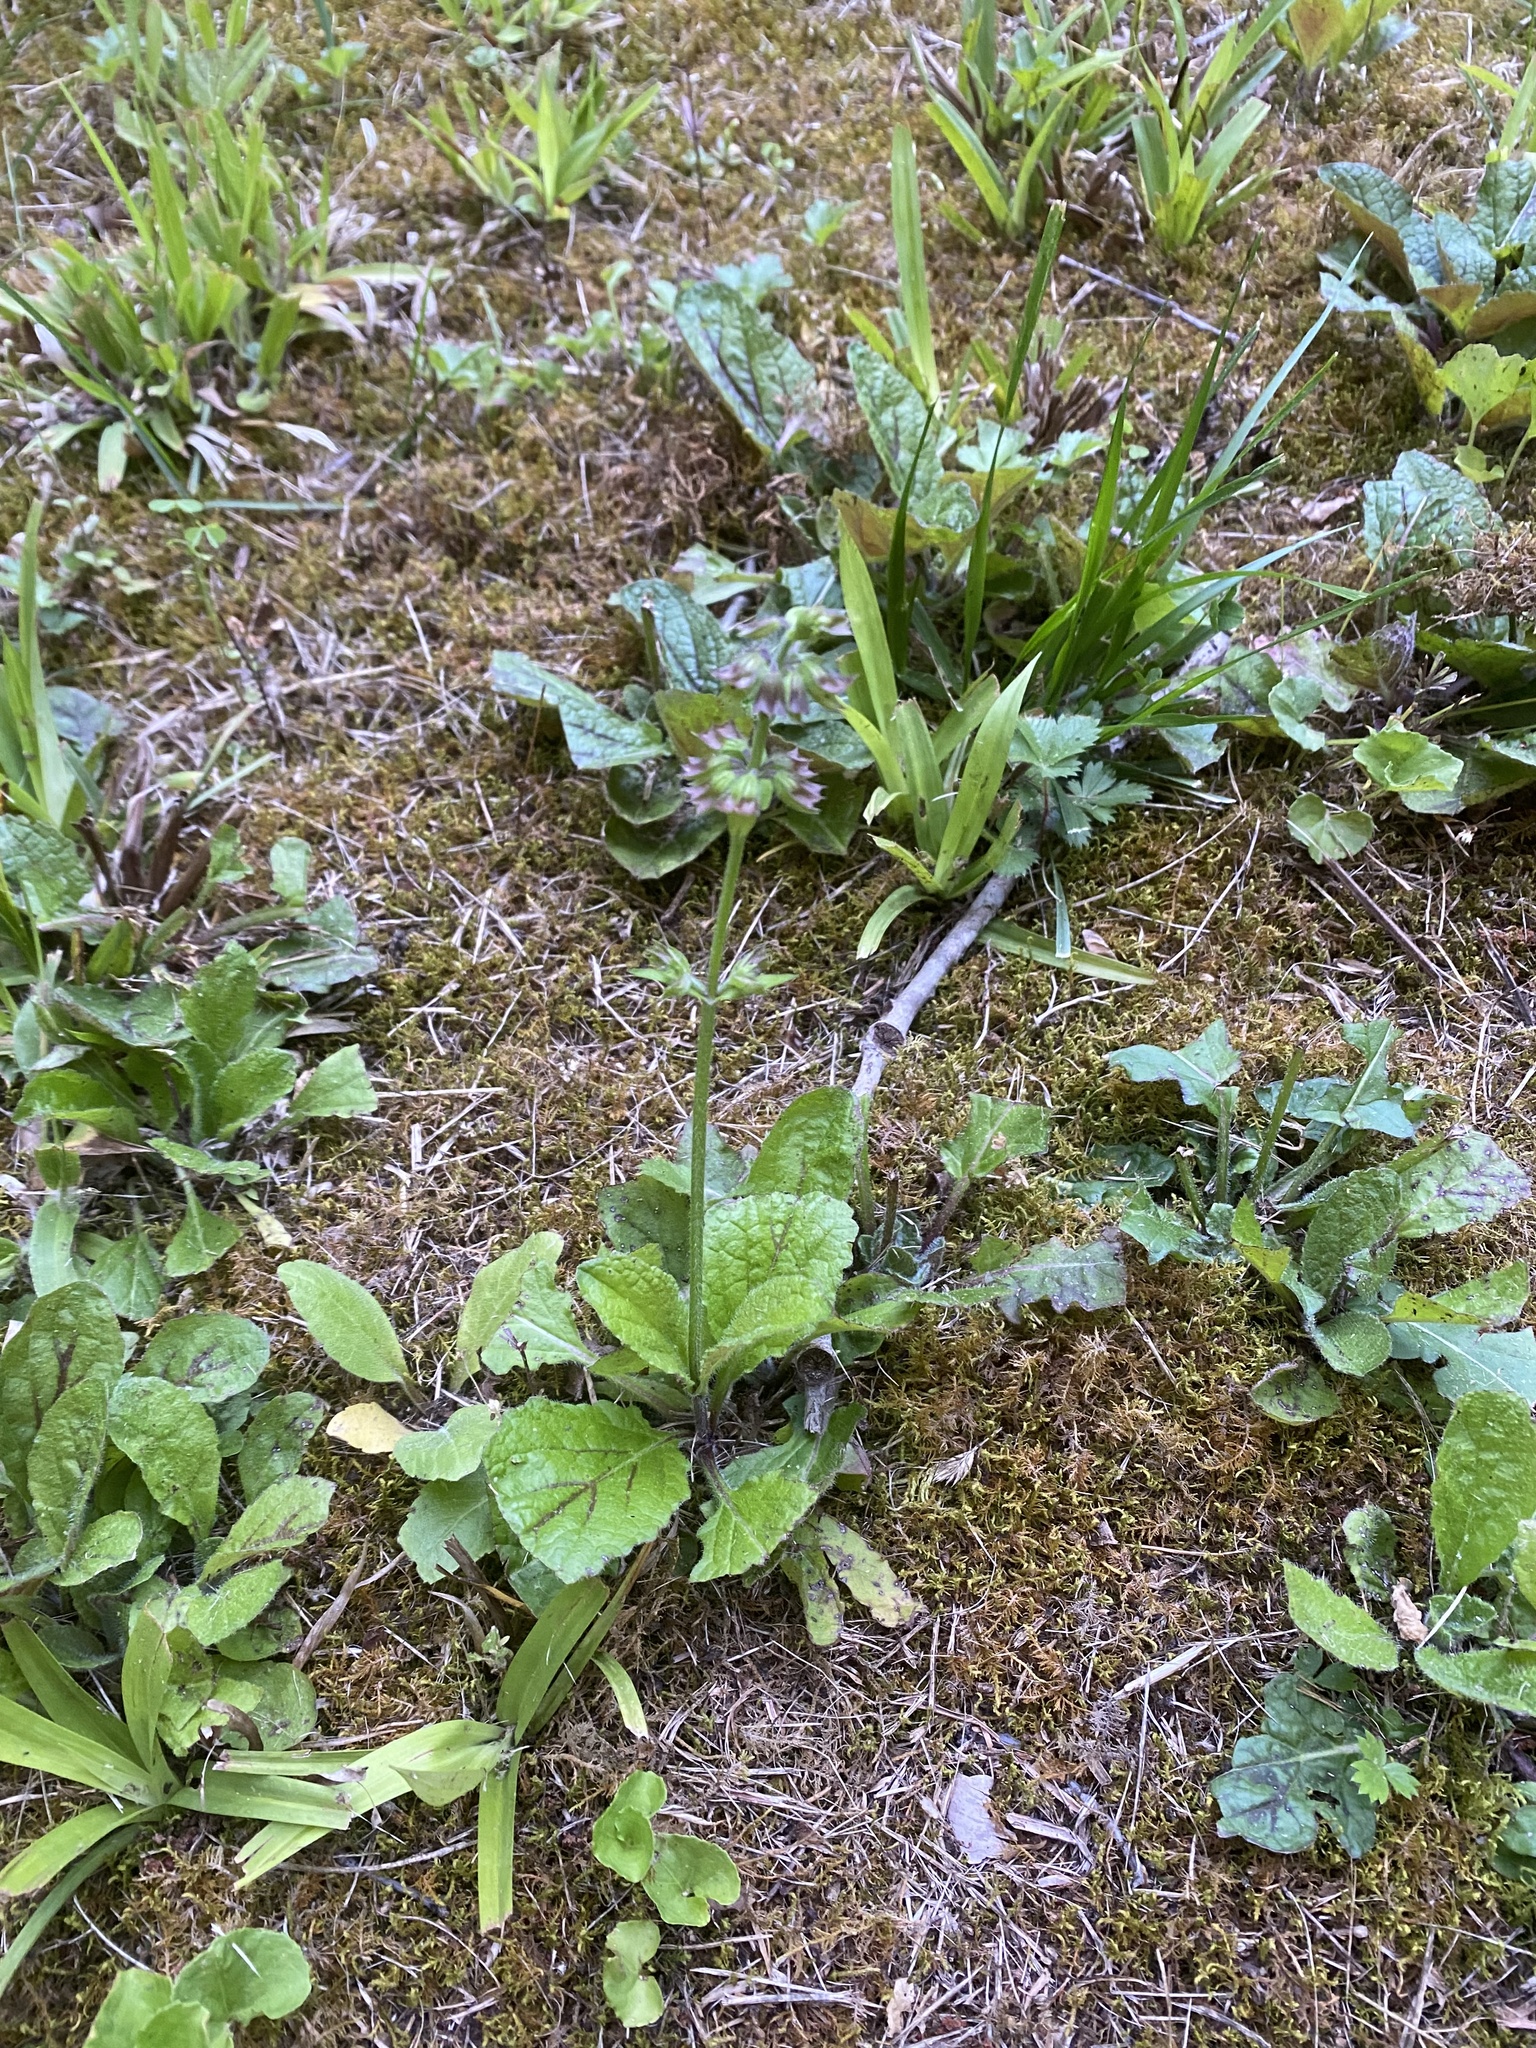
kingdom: Plantae
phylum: Tracheophyta
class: Magnoliopsida
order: Lamiales
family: Lamiaceae
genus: Salvia
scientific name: Salvia lyrata
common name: Cancerweed
